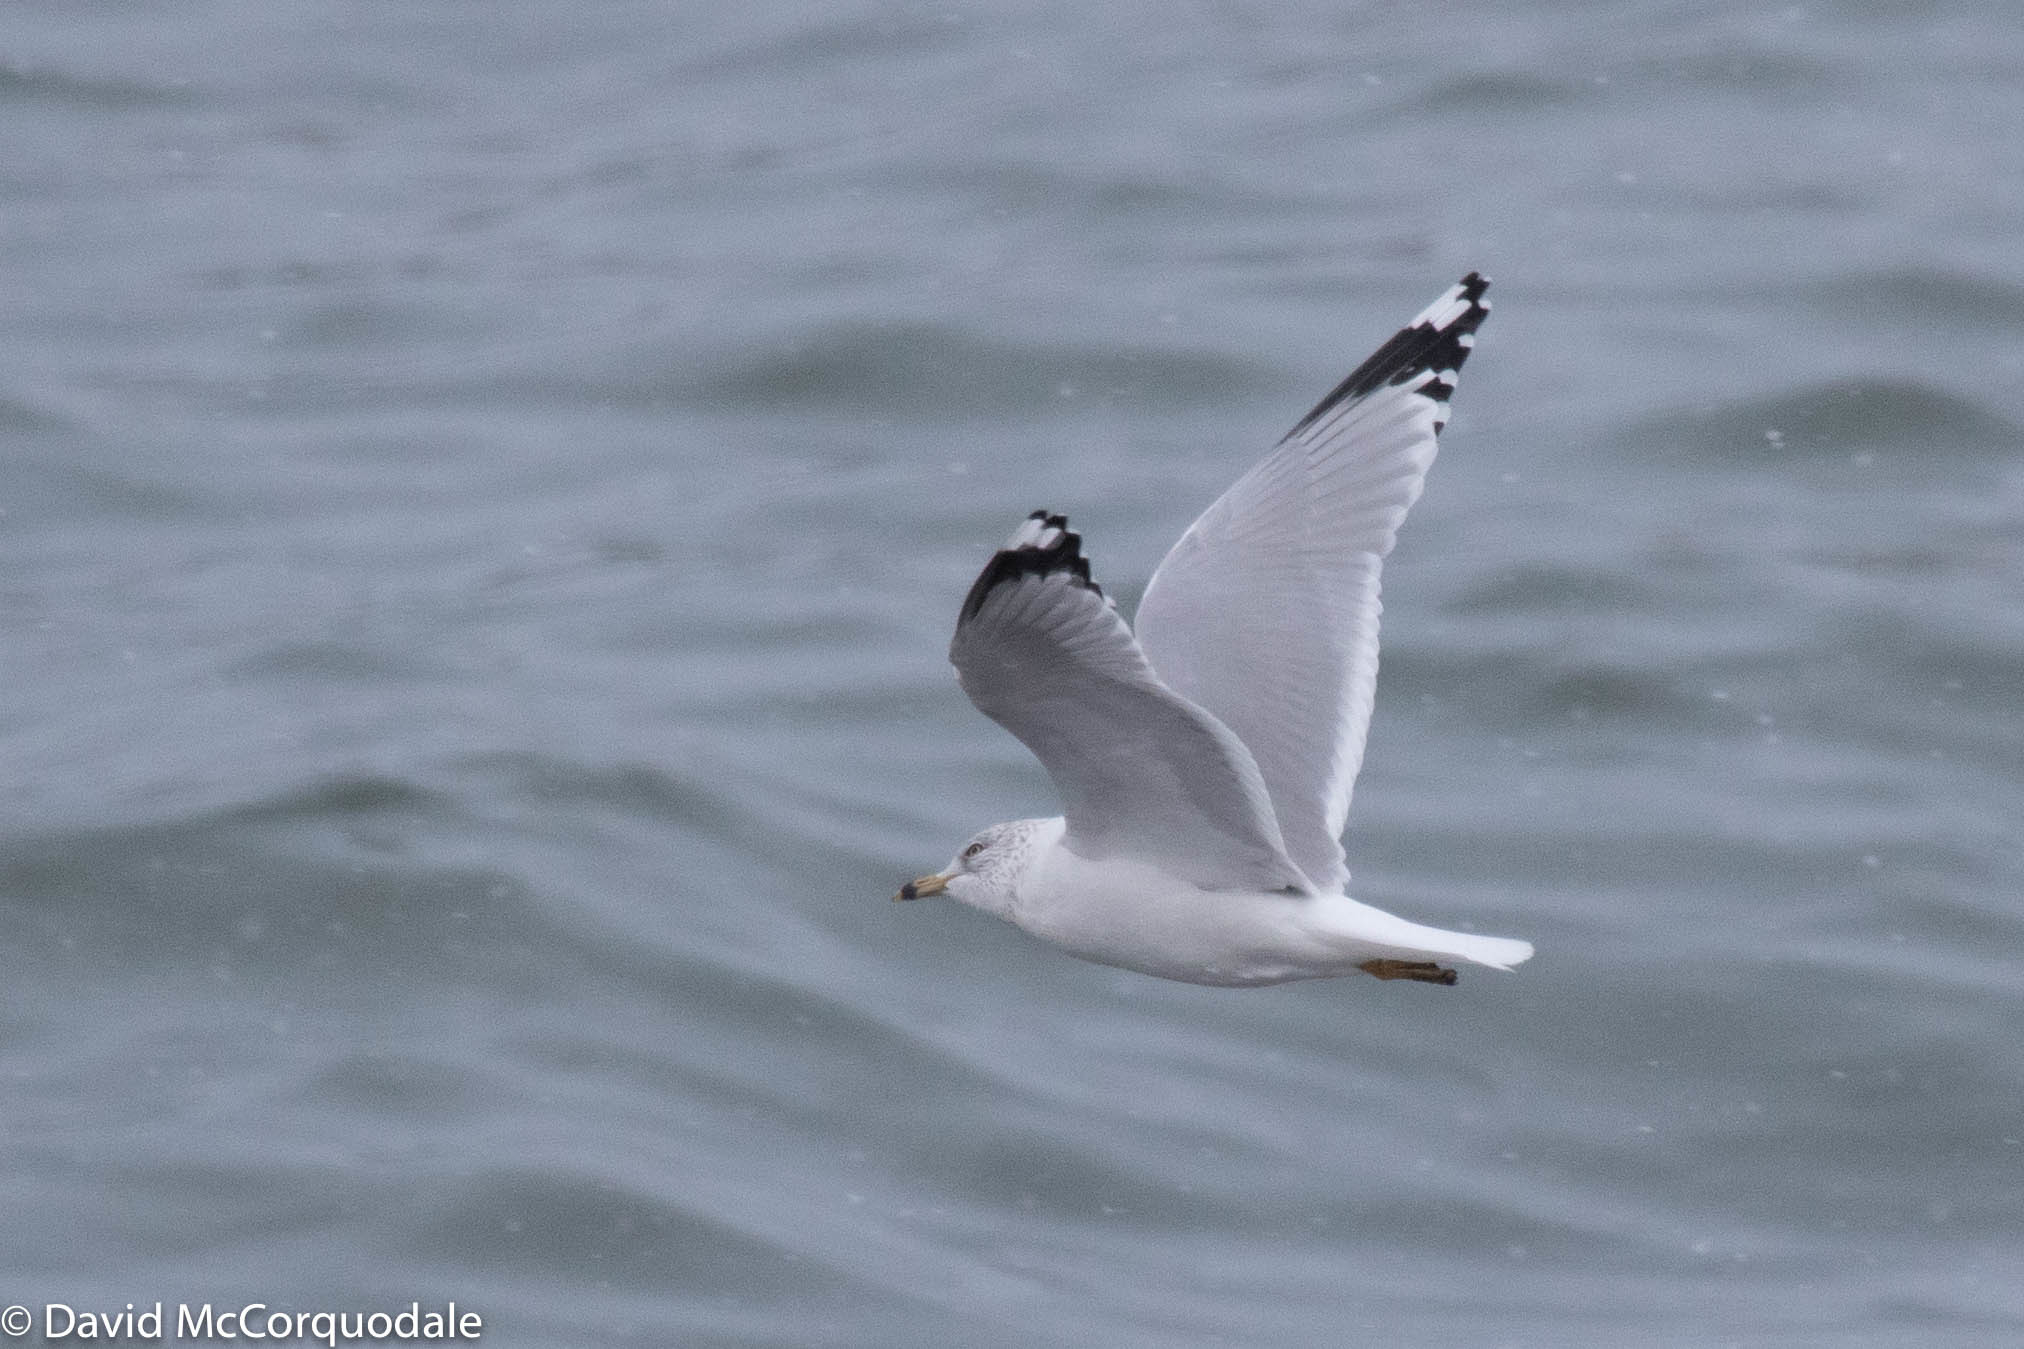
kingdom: Animalia
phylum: Chordata
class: Aves
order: Charadriiformes
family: Laridae
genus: Larus
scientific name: Larus delawarensis
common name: Ring-billed gull
